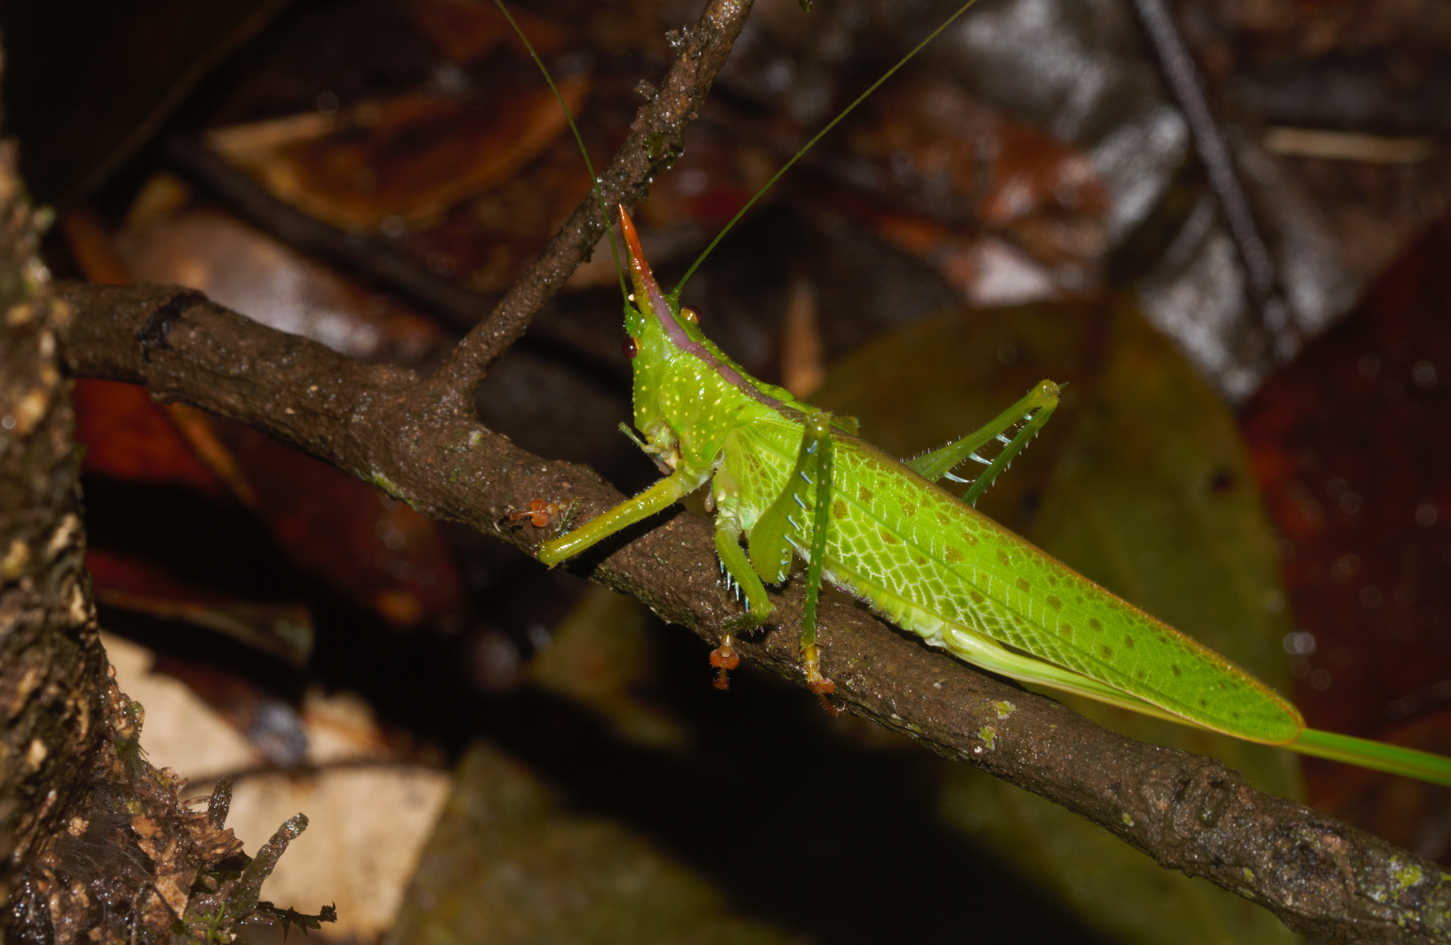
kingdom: Animalia
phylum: Arthropoda
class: Insecta
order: Orthoptera
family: Tettigoniidae
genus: Copiphora
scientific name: Copiphora longicauda
